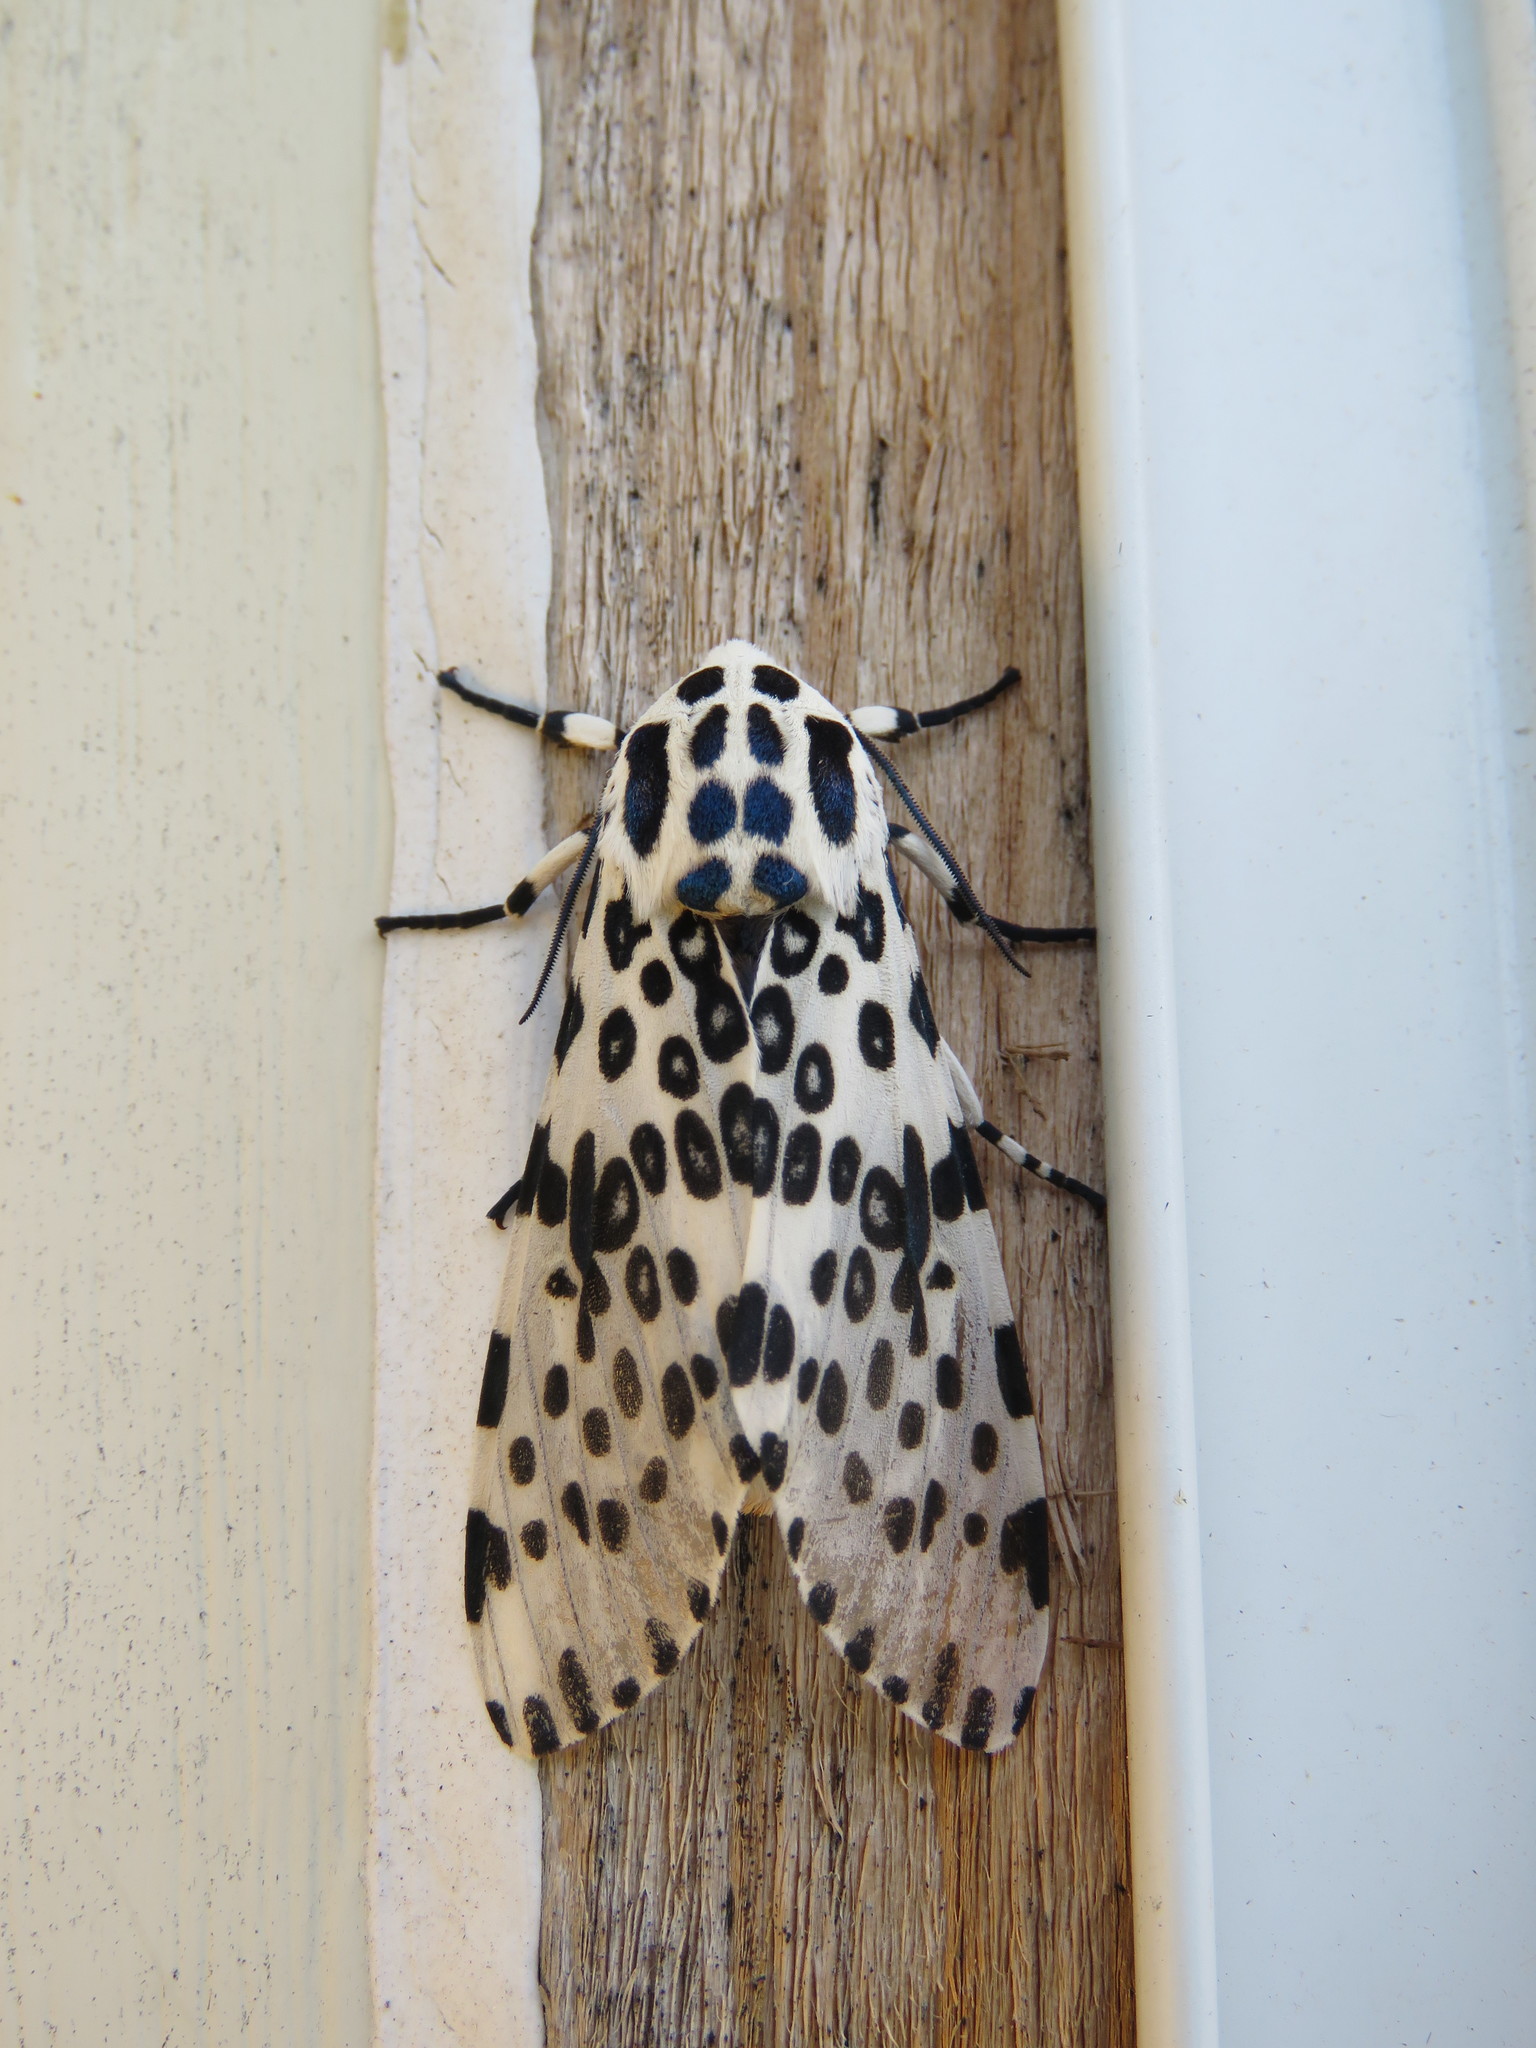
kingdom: Animalia
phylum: Arthropoda
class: Insecta
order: Lepidoptera
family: Erebidae
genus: Hypercompe
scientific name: Hypercompe scribonia
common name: Giant leopard moth
